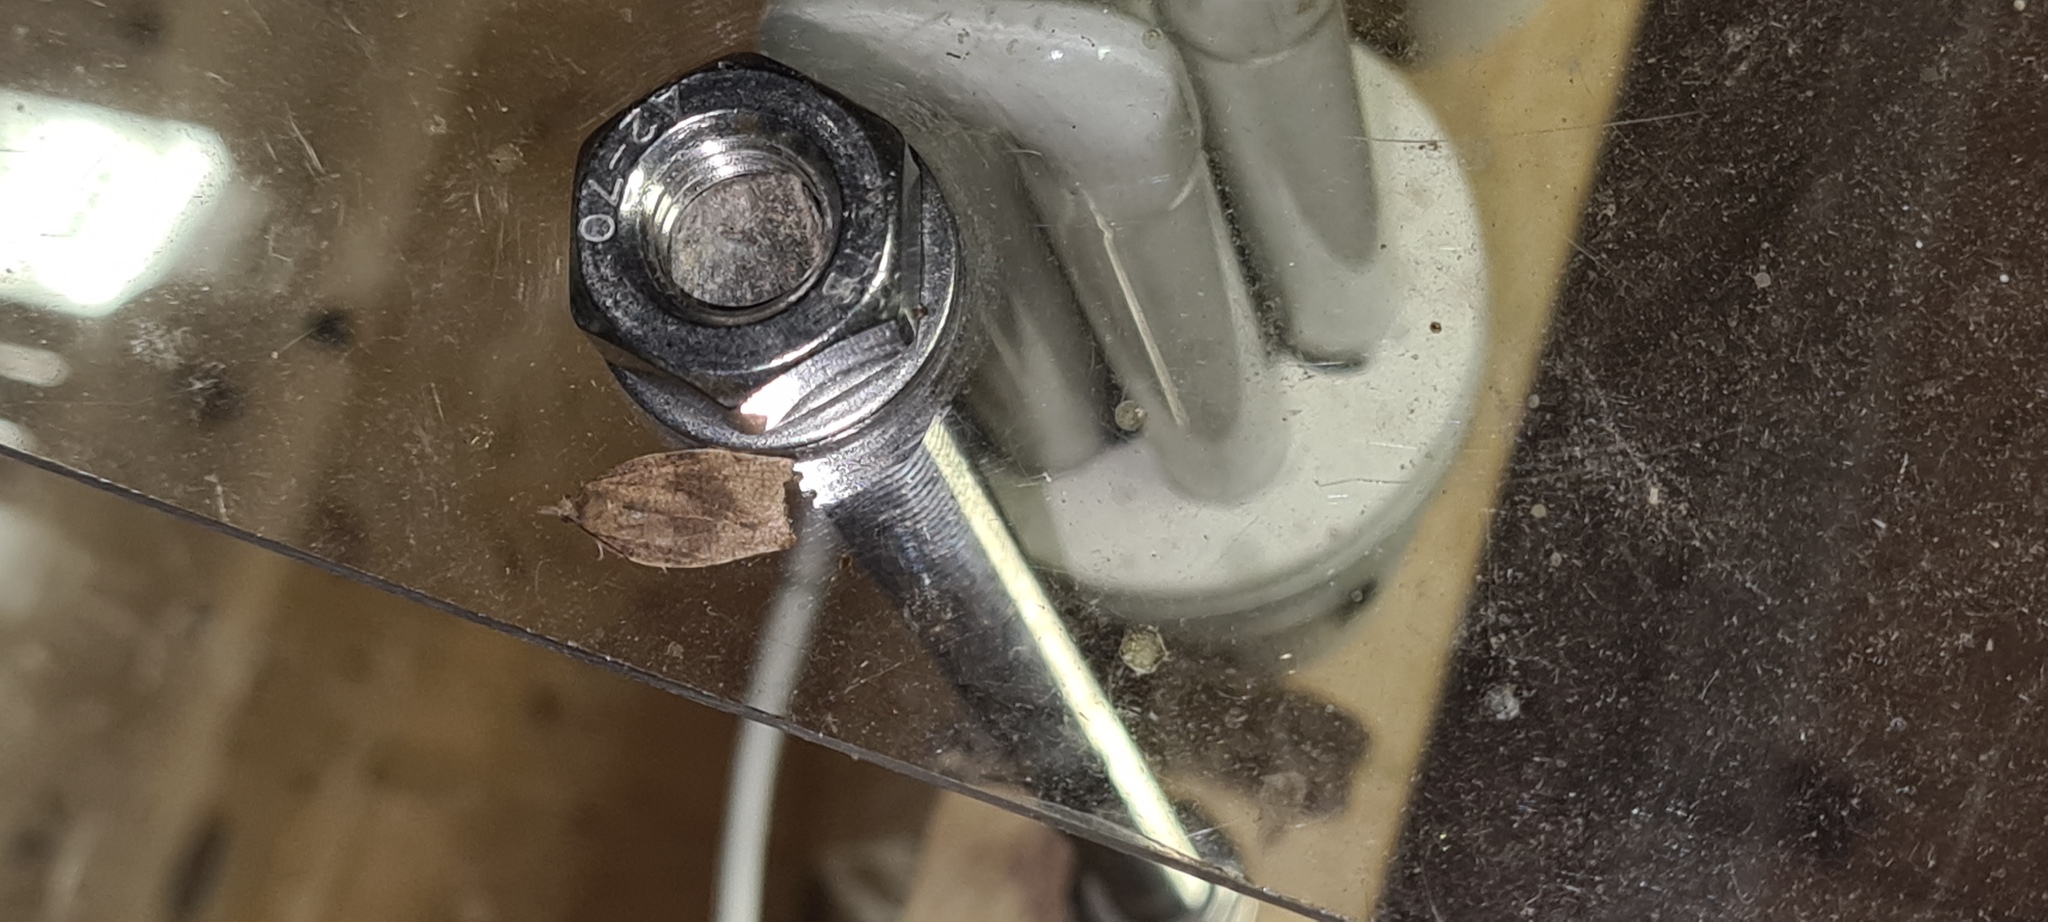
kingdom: Animalia
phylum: Arthropoda
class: Insecta
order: Lepidoptera
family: Tortricidae
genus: Pandemis
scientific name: Pandemis heparana
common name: Dark fruit-tree tortrix
